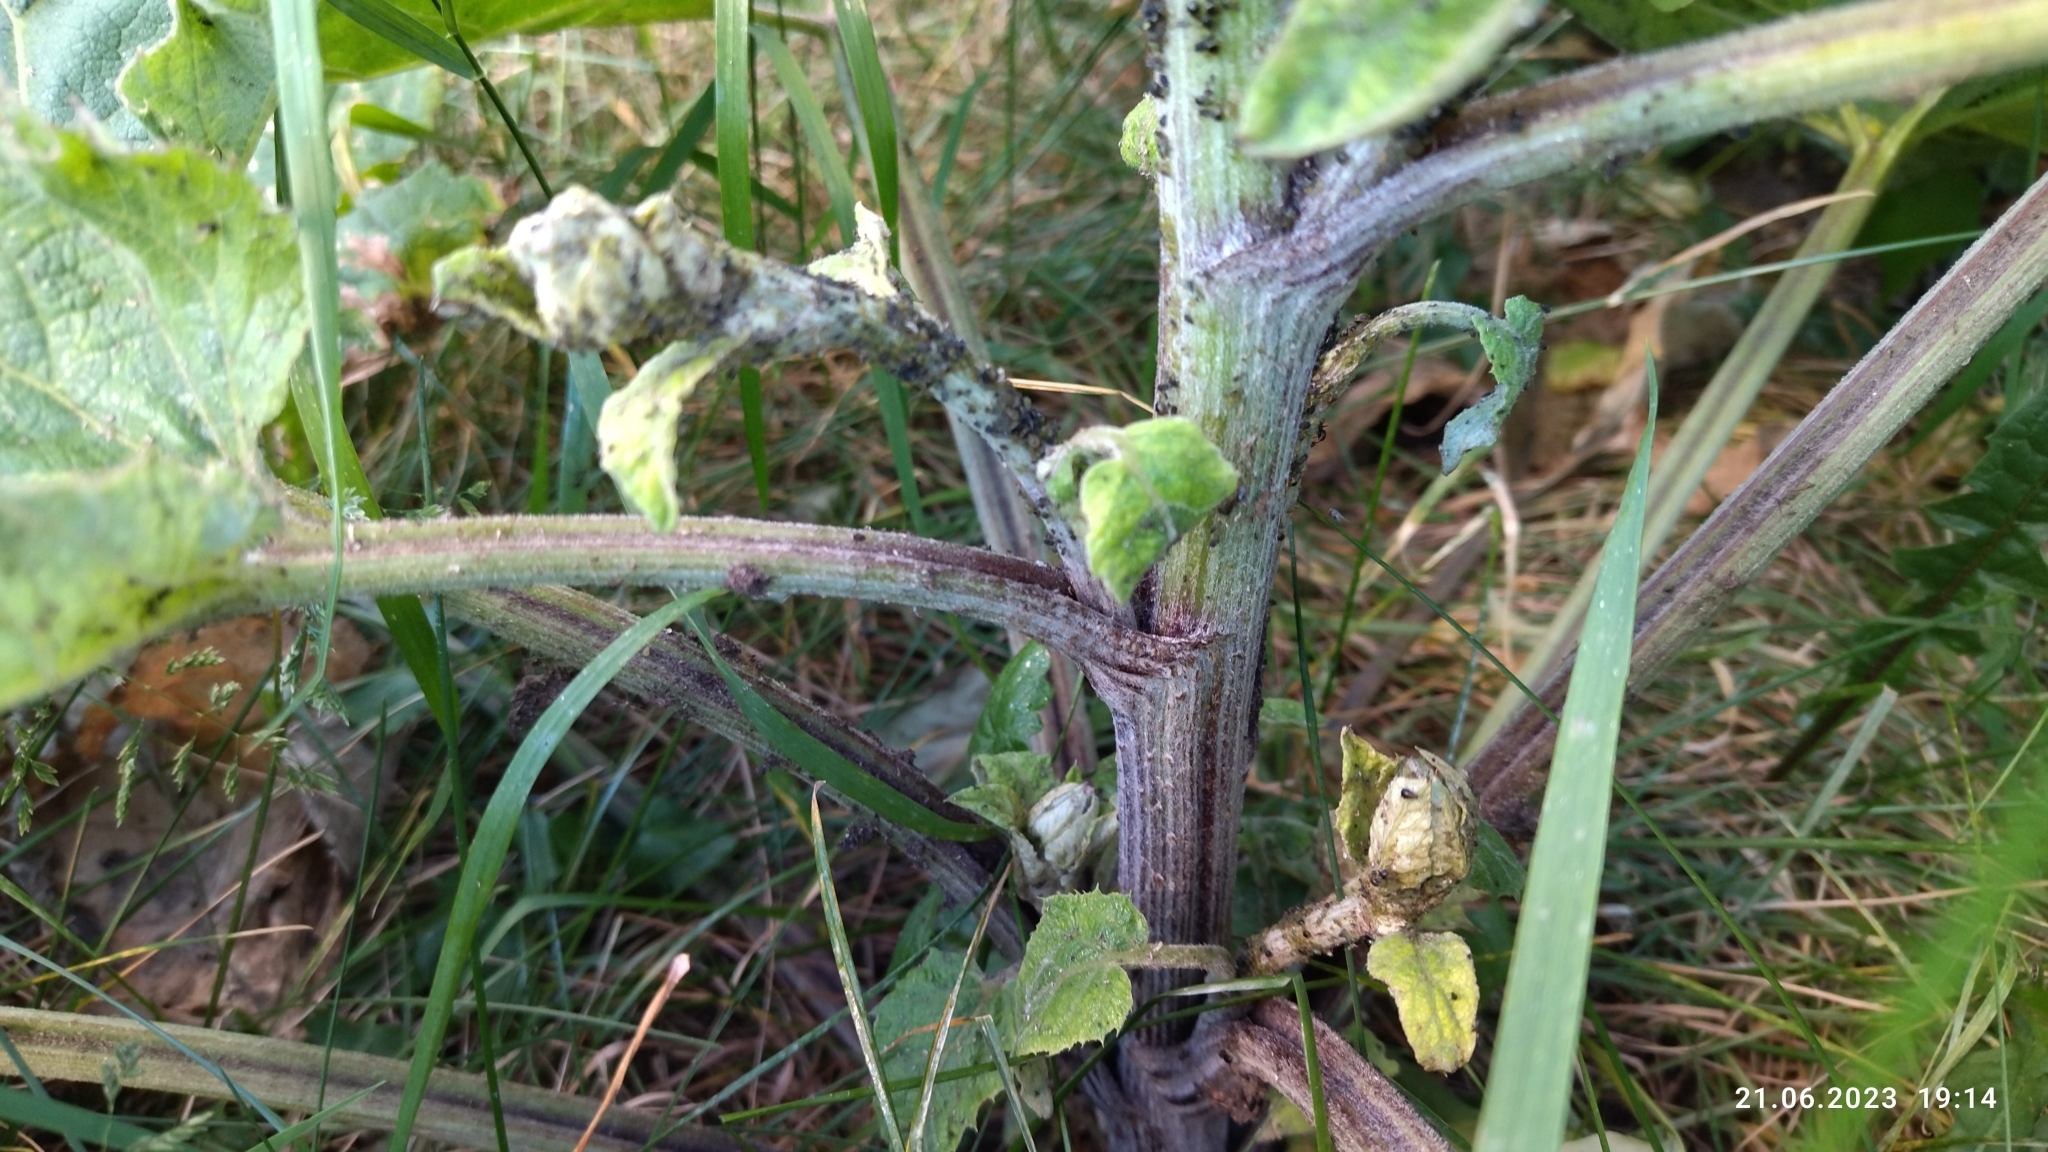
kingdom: Plantae
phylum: Tracheophyta
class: Magnoliopsida
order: Asterales
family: Asteraceae
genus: Arctium
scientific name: Arctium tomentosum
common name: Woolly burdock
